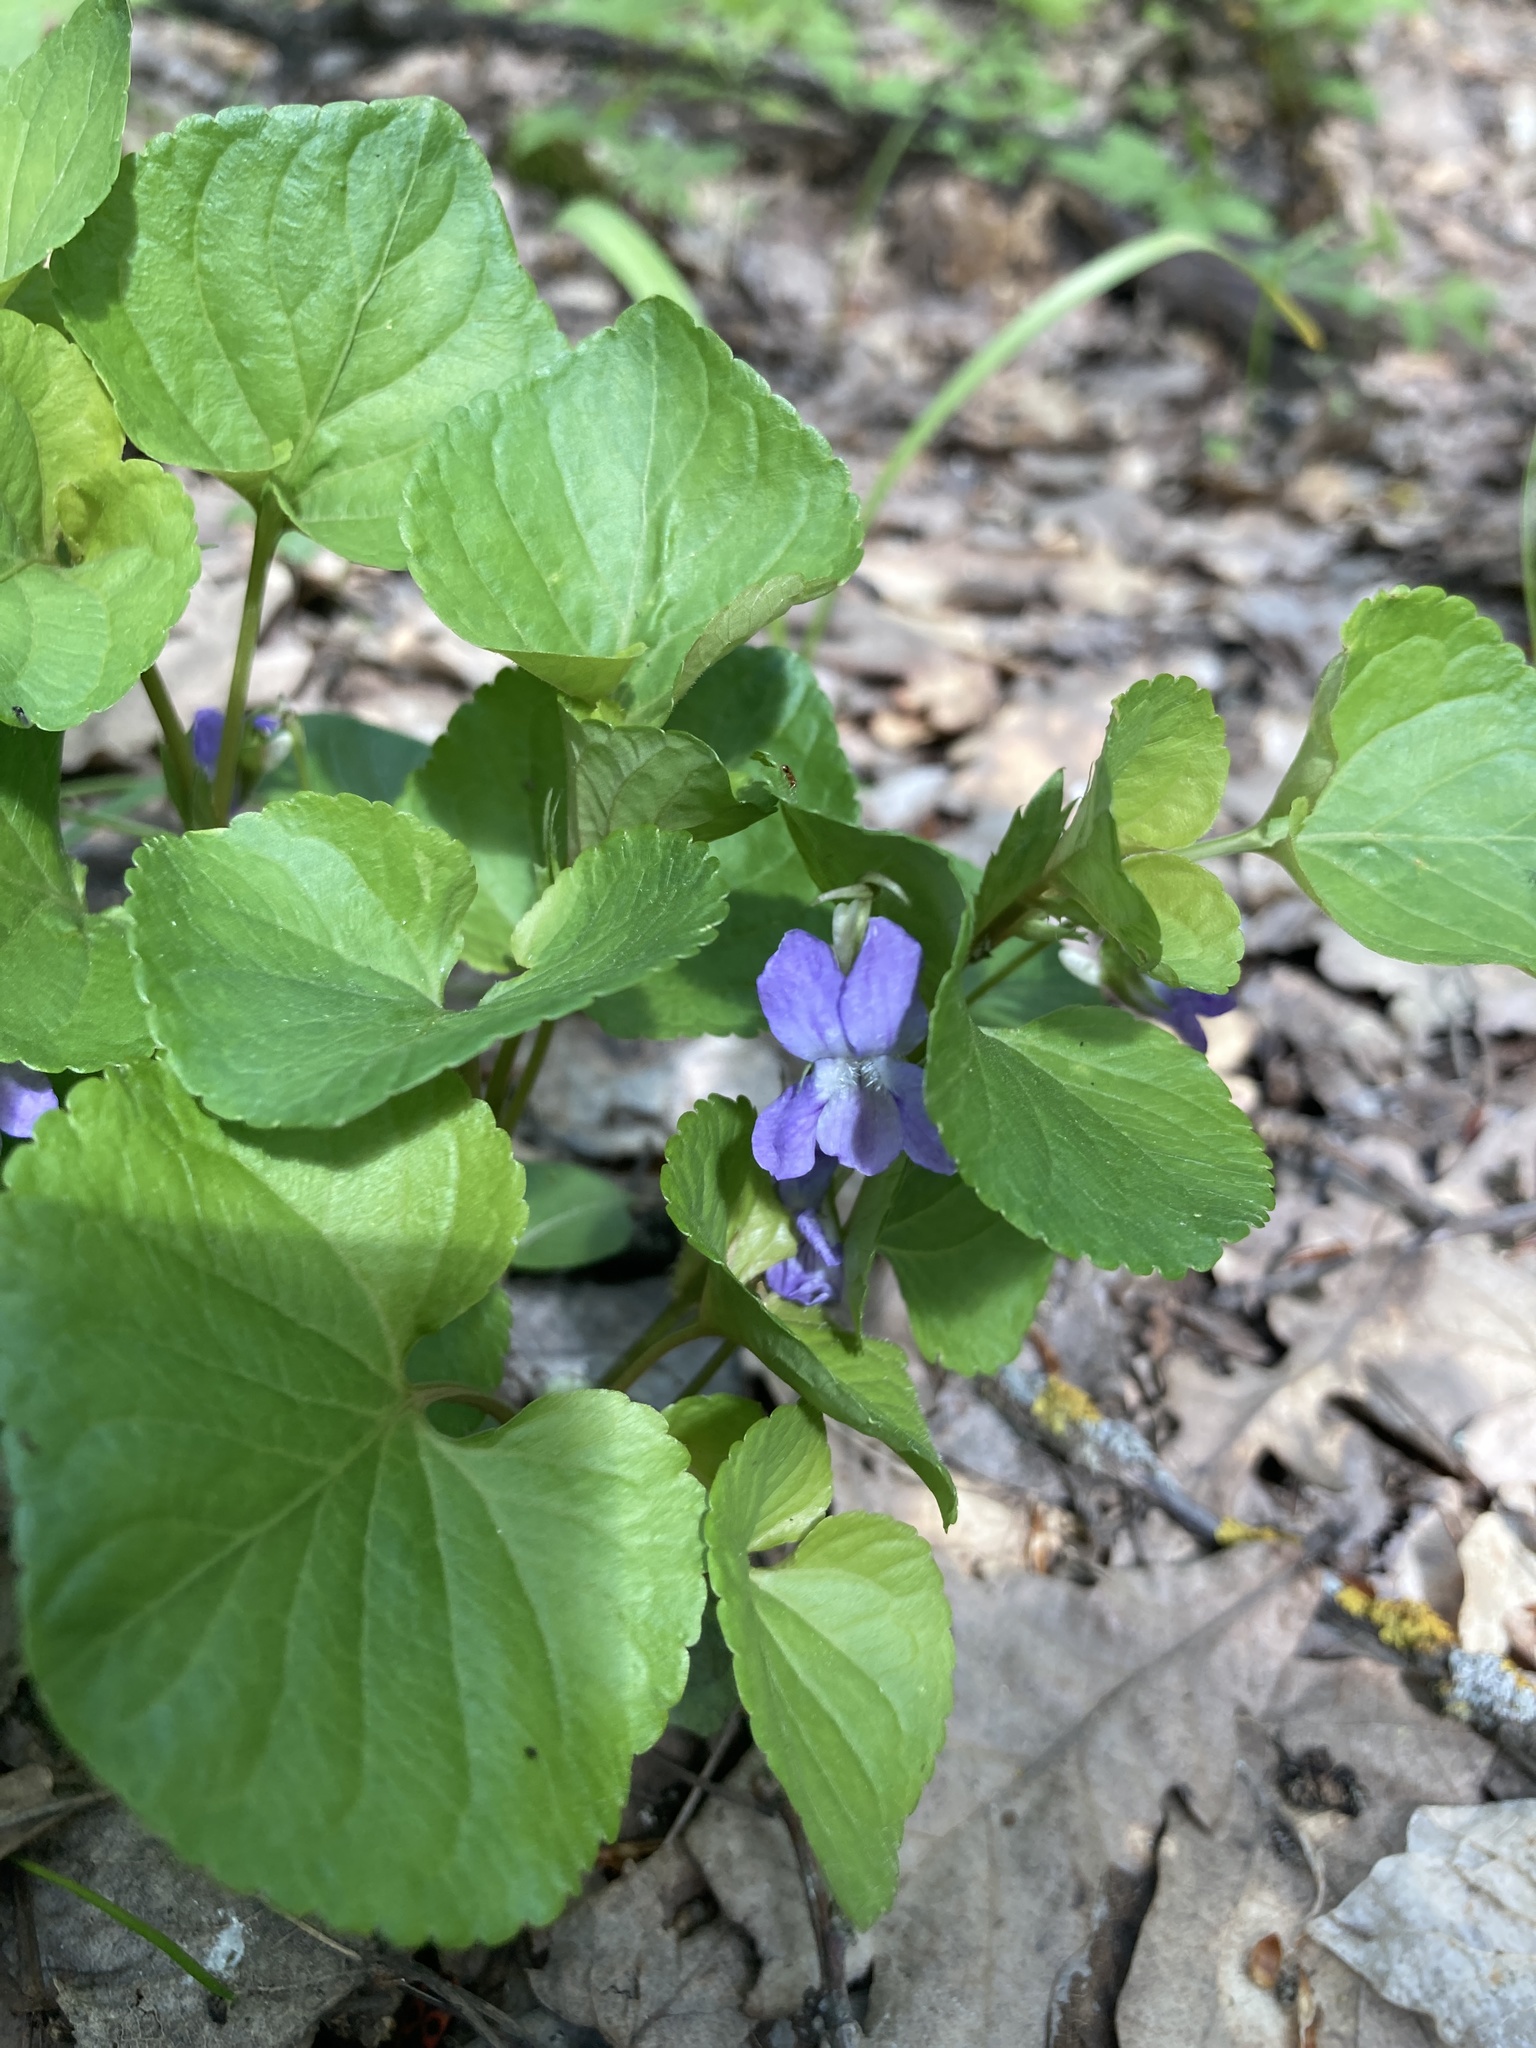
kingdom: Plantae
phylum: Tracheophyta
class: Magnoliopsida
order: Malpighiales
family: Violaceae
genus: Viola
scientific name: Viola mirabilis
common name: Wonder violet
